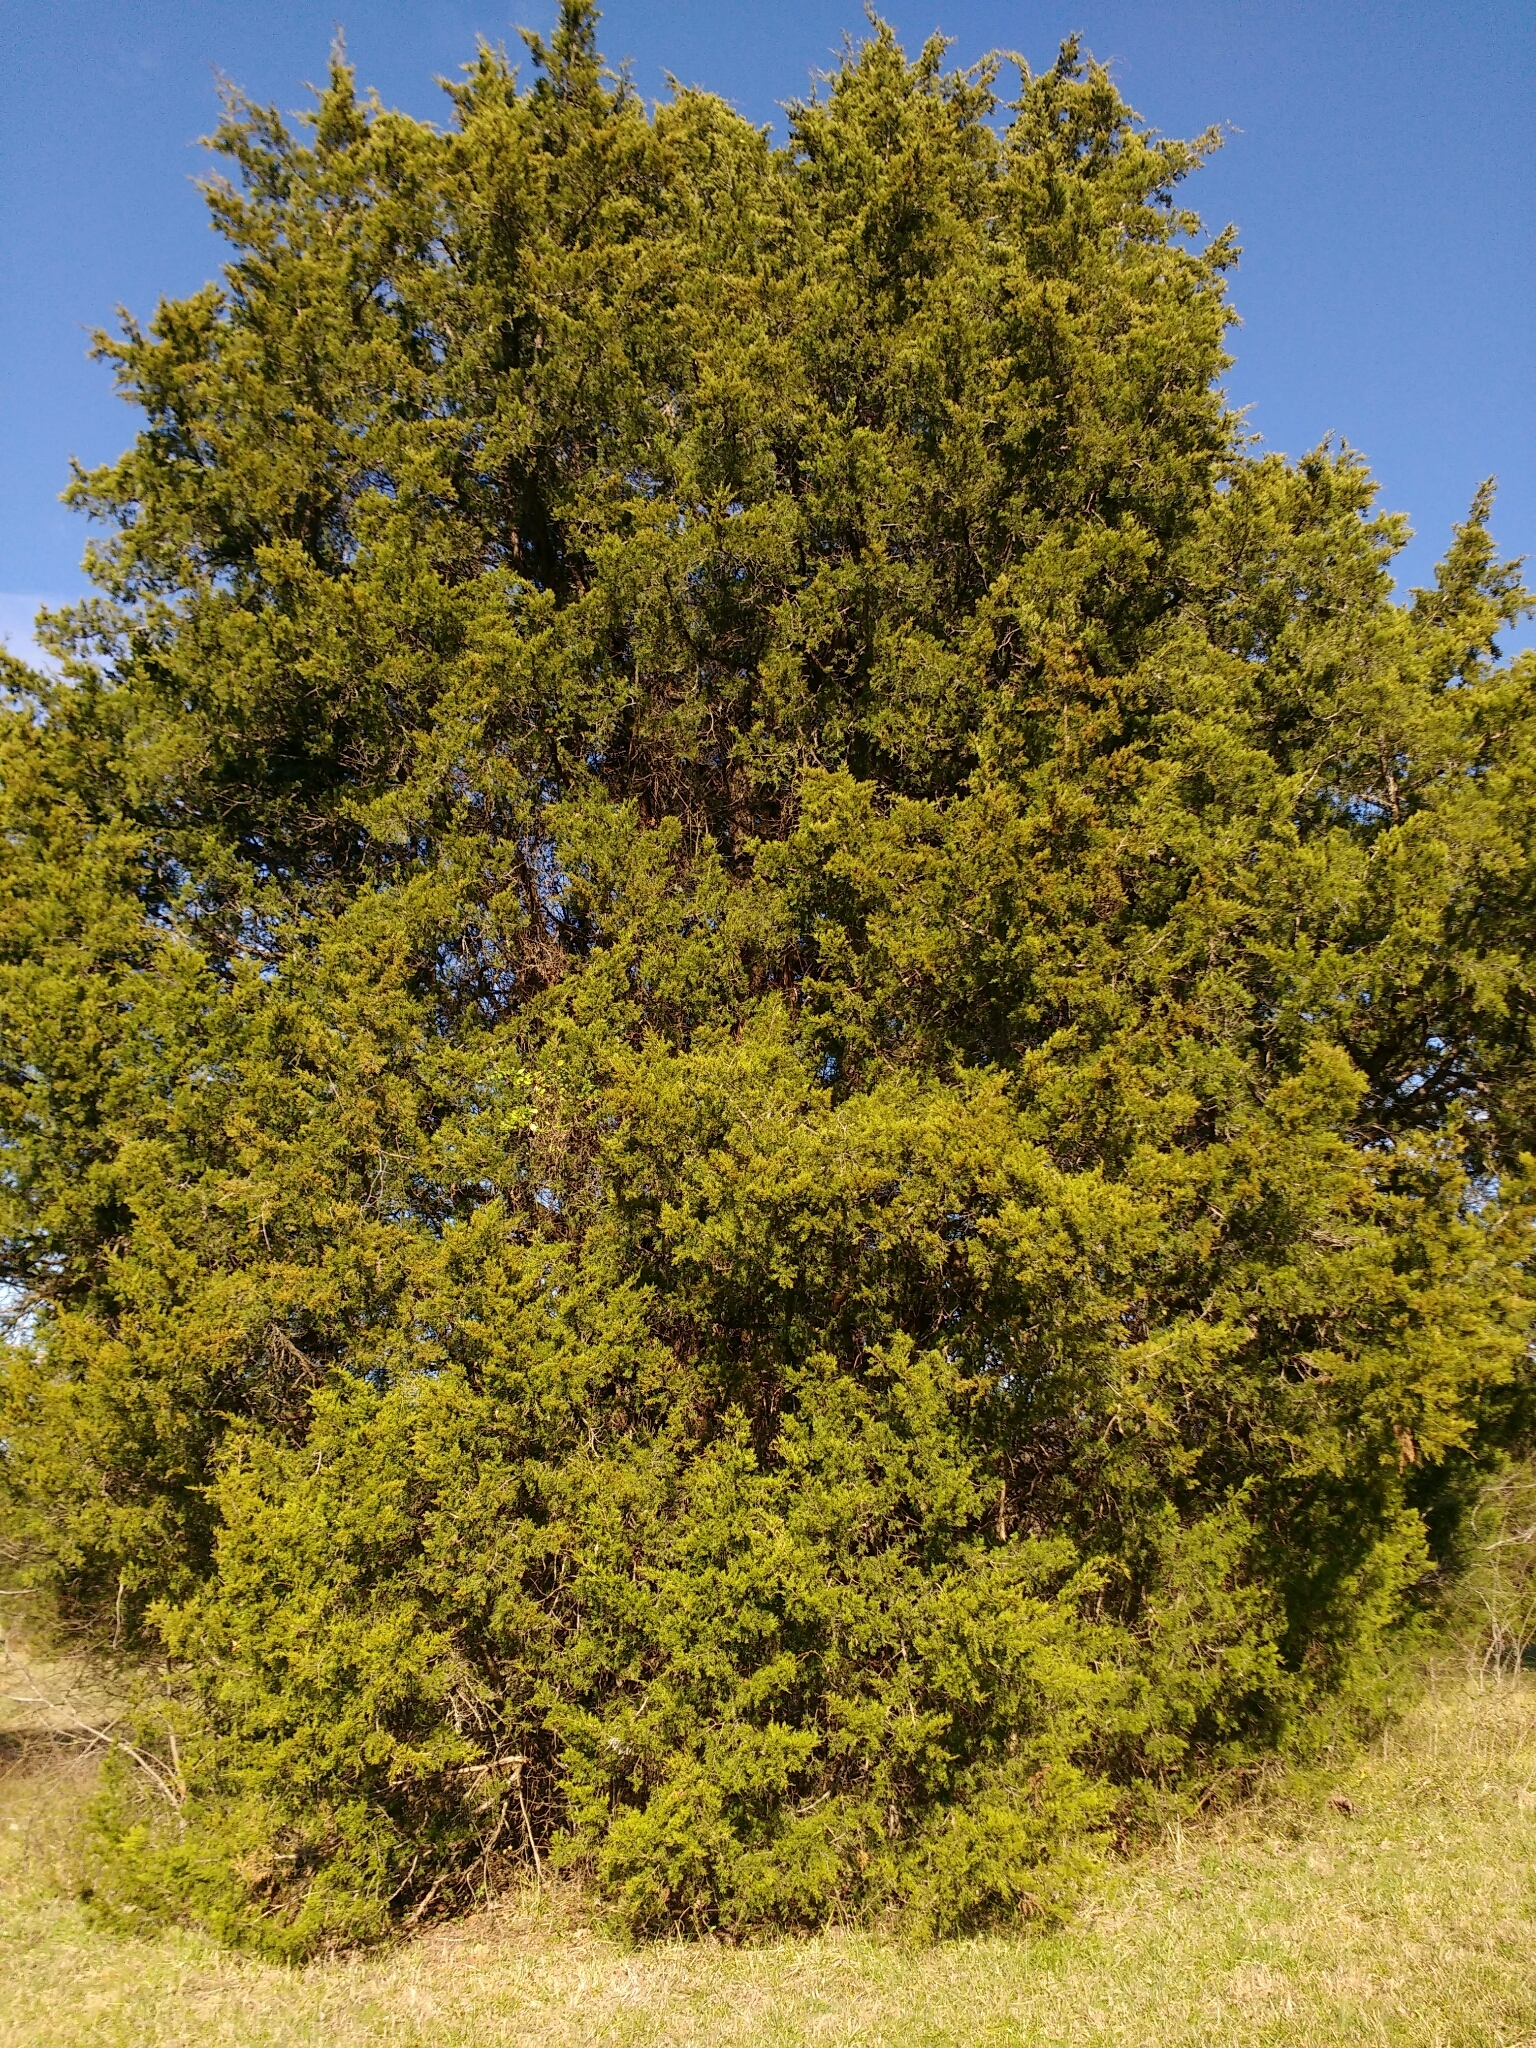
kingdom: Plantae
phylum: Tracheophyta
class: Pinopsida
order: Pinales
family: Cupressaceae
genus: Juniperus
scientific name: Juniperus virginiana
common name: Red juniper
